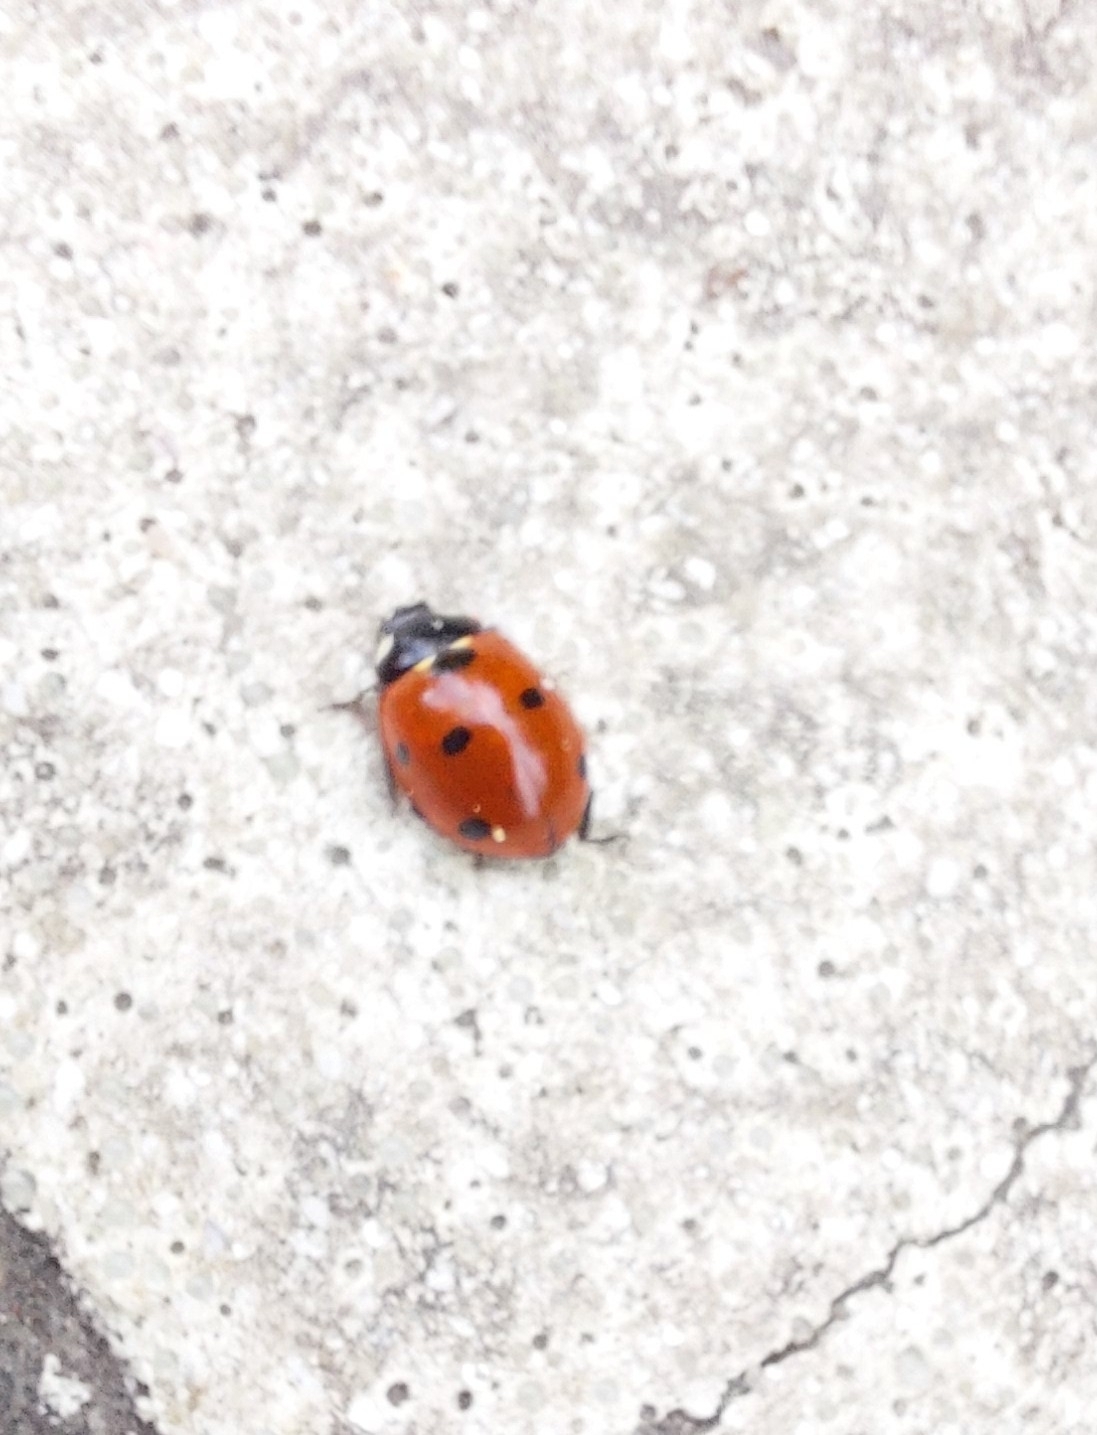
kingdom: Animalia
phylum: Arthropoda
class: Insecta
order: Coleoptera
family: Coccinellidae
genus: Coccinella
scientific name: Coccinella septempunctata
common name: Sevenspotted lady beetle
